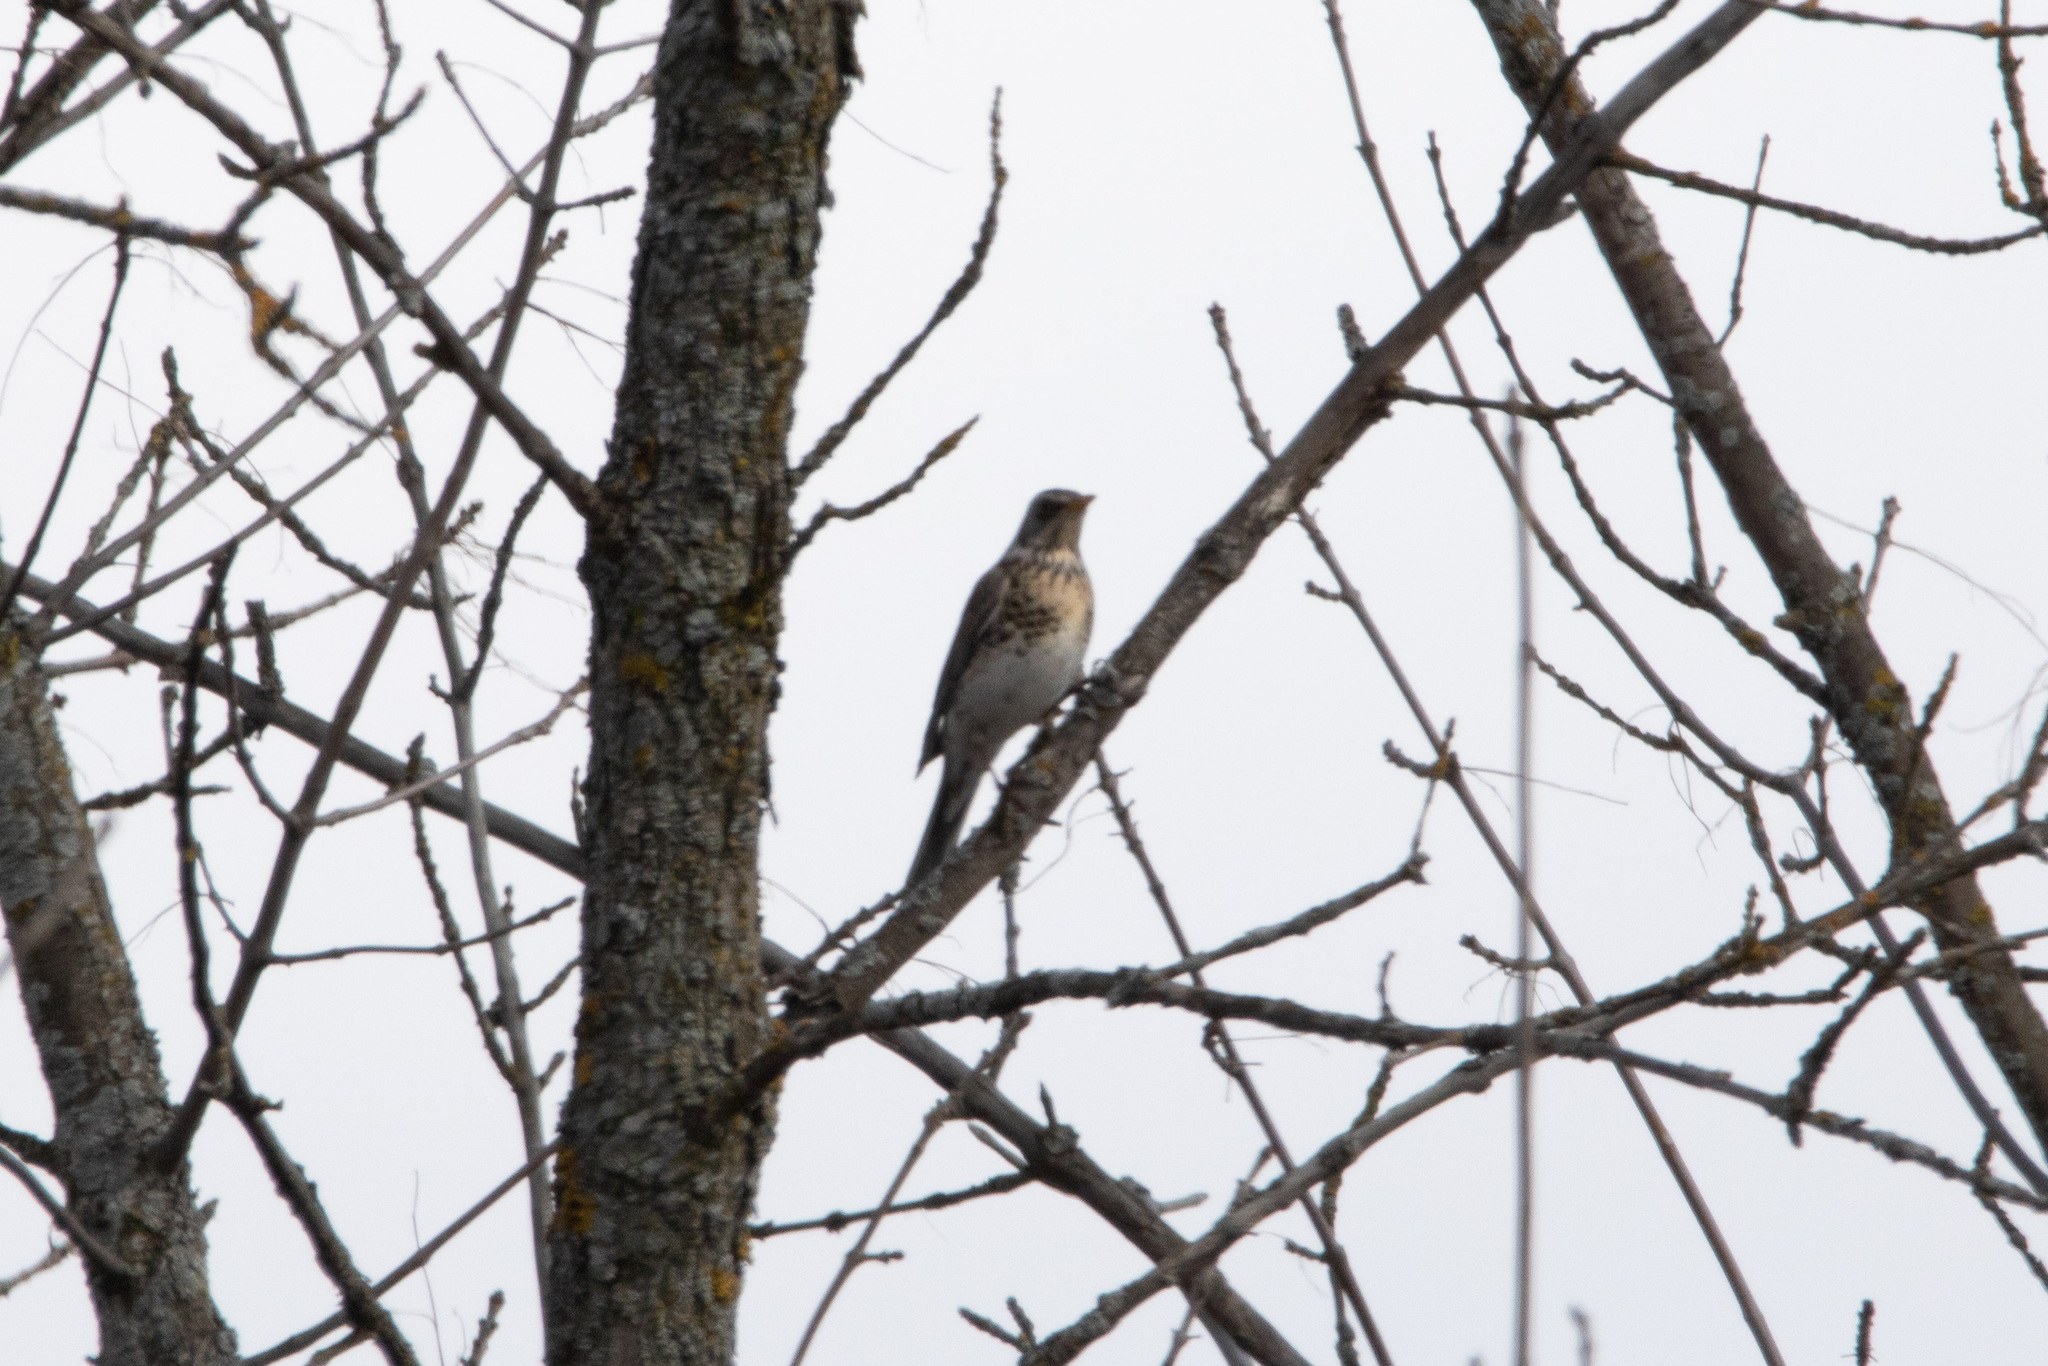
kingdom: Animalia
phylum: Chordata
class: Aves
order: Passeriformes
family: Turdidae
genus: Turdus
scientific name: Turdus pilaris
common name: Fieldfare
